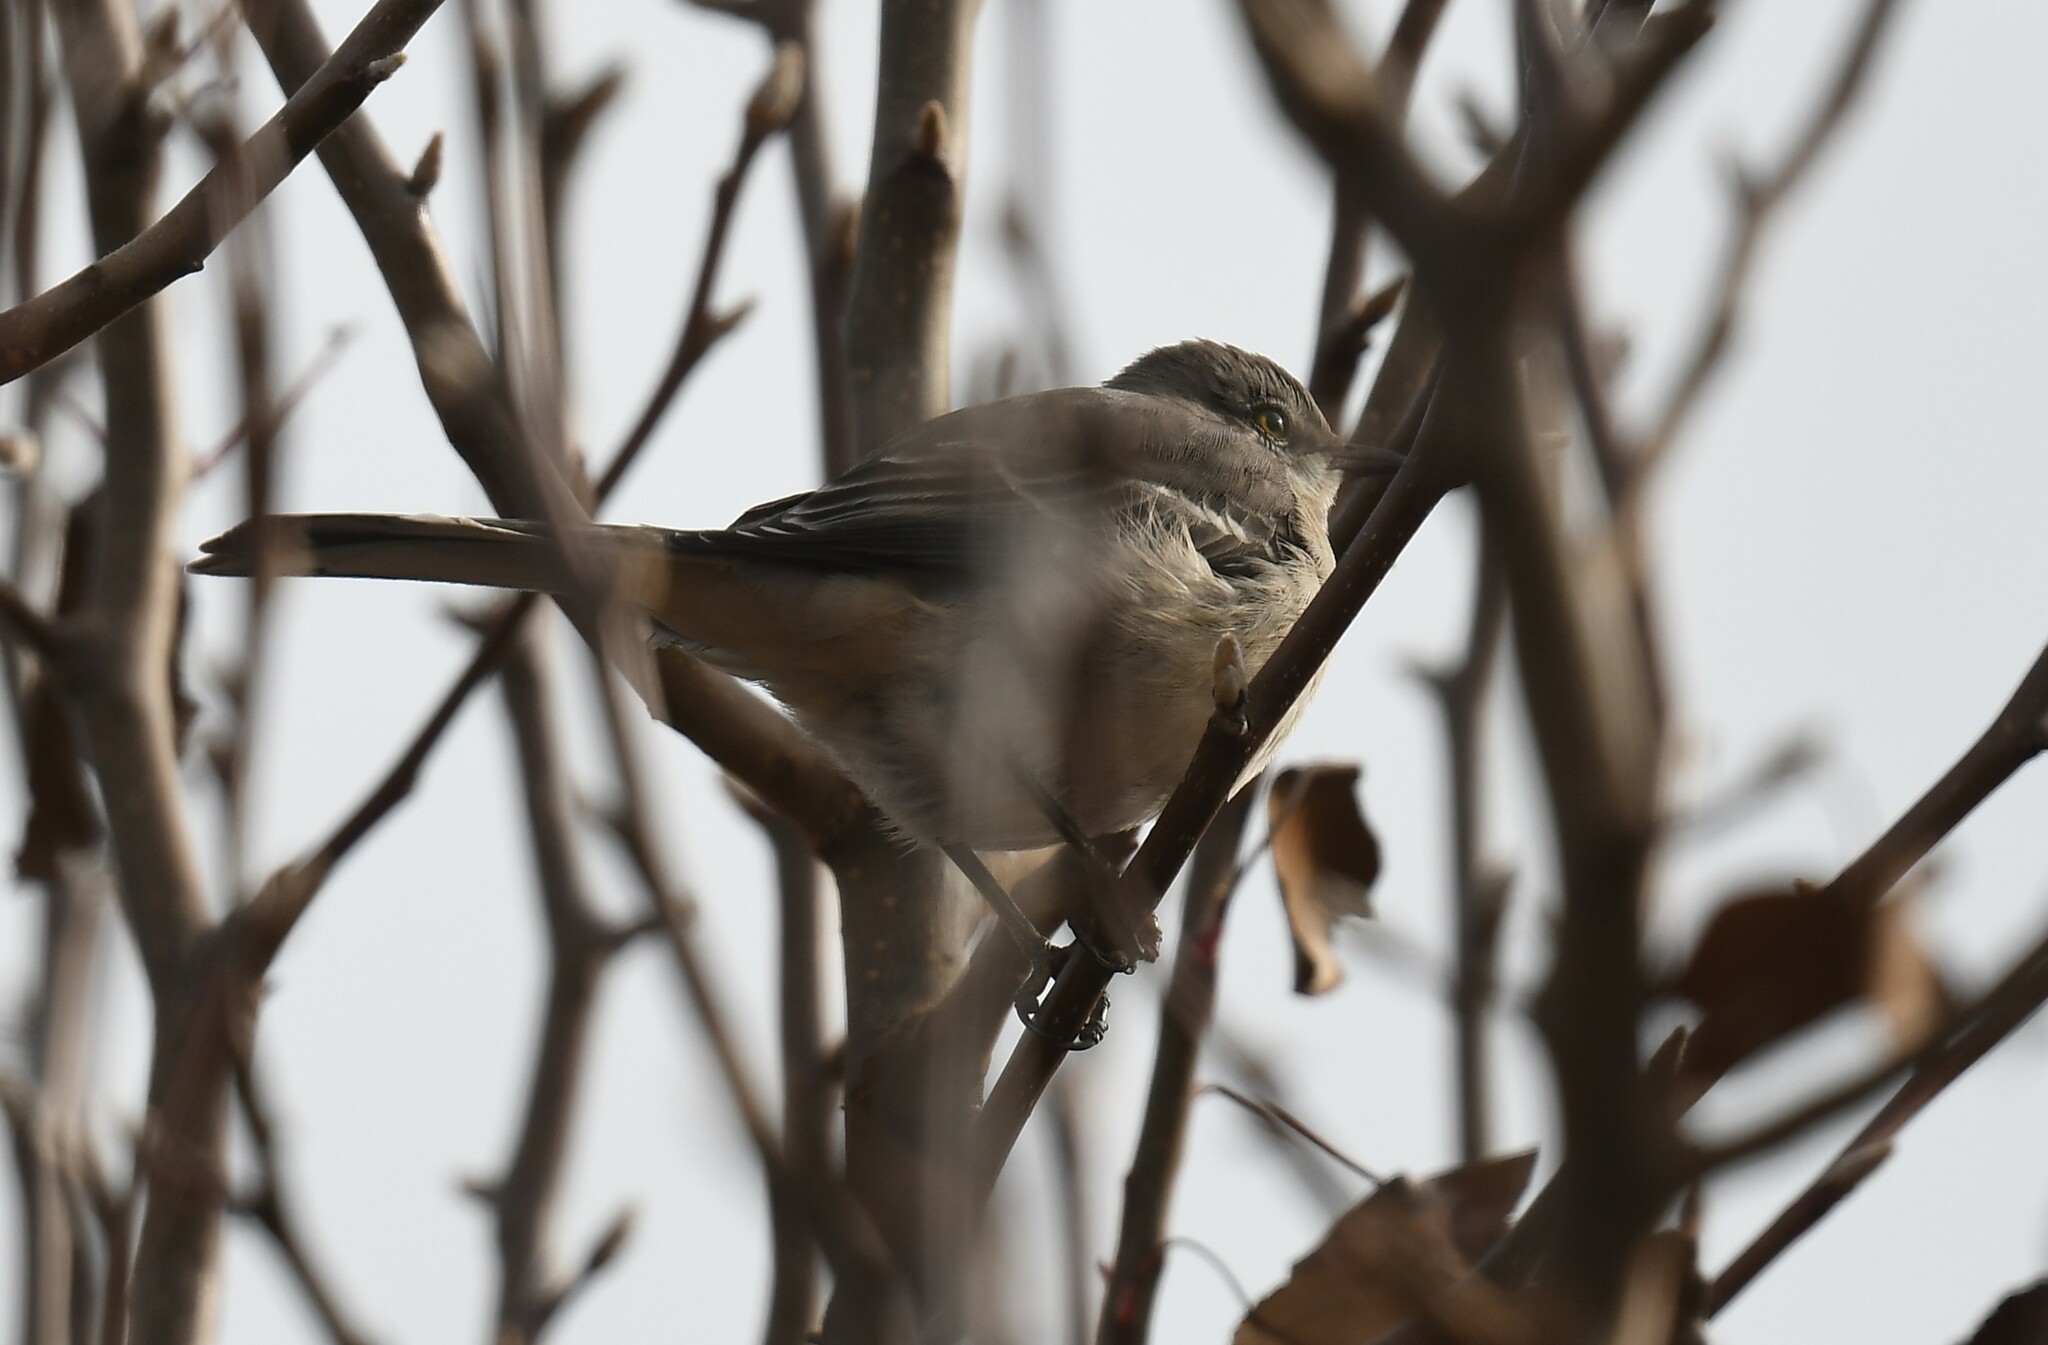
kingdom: Animalia
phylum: Chordata
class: Aves
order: Passeriformes
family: Mimidae
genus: Mimus
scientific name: Mimus polyglottos
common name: Northern mockingbird
